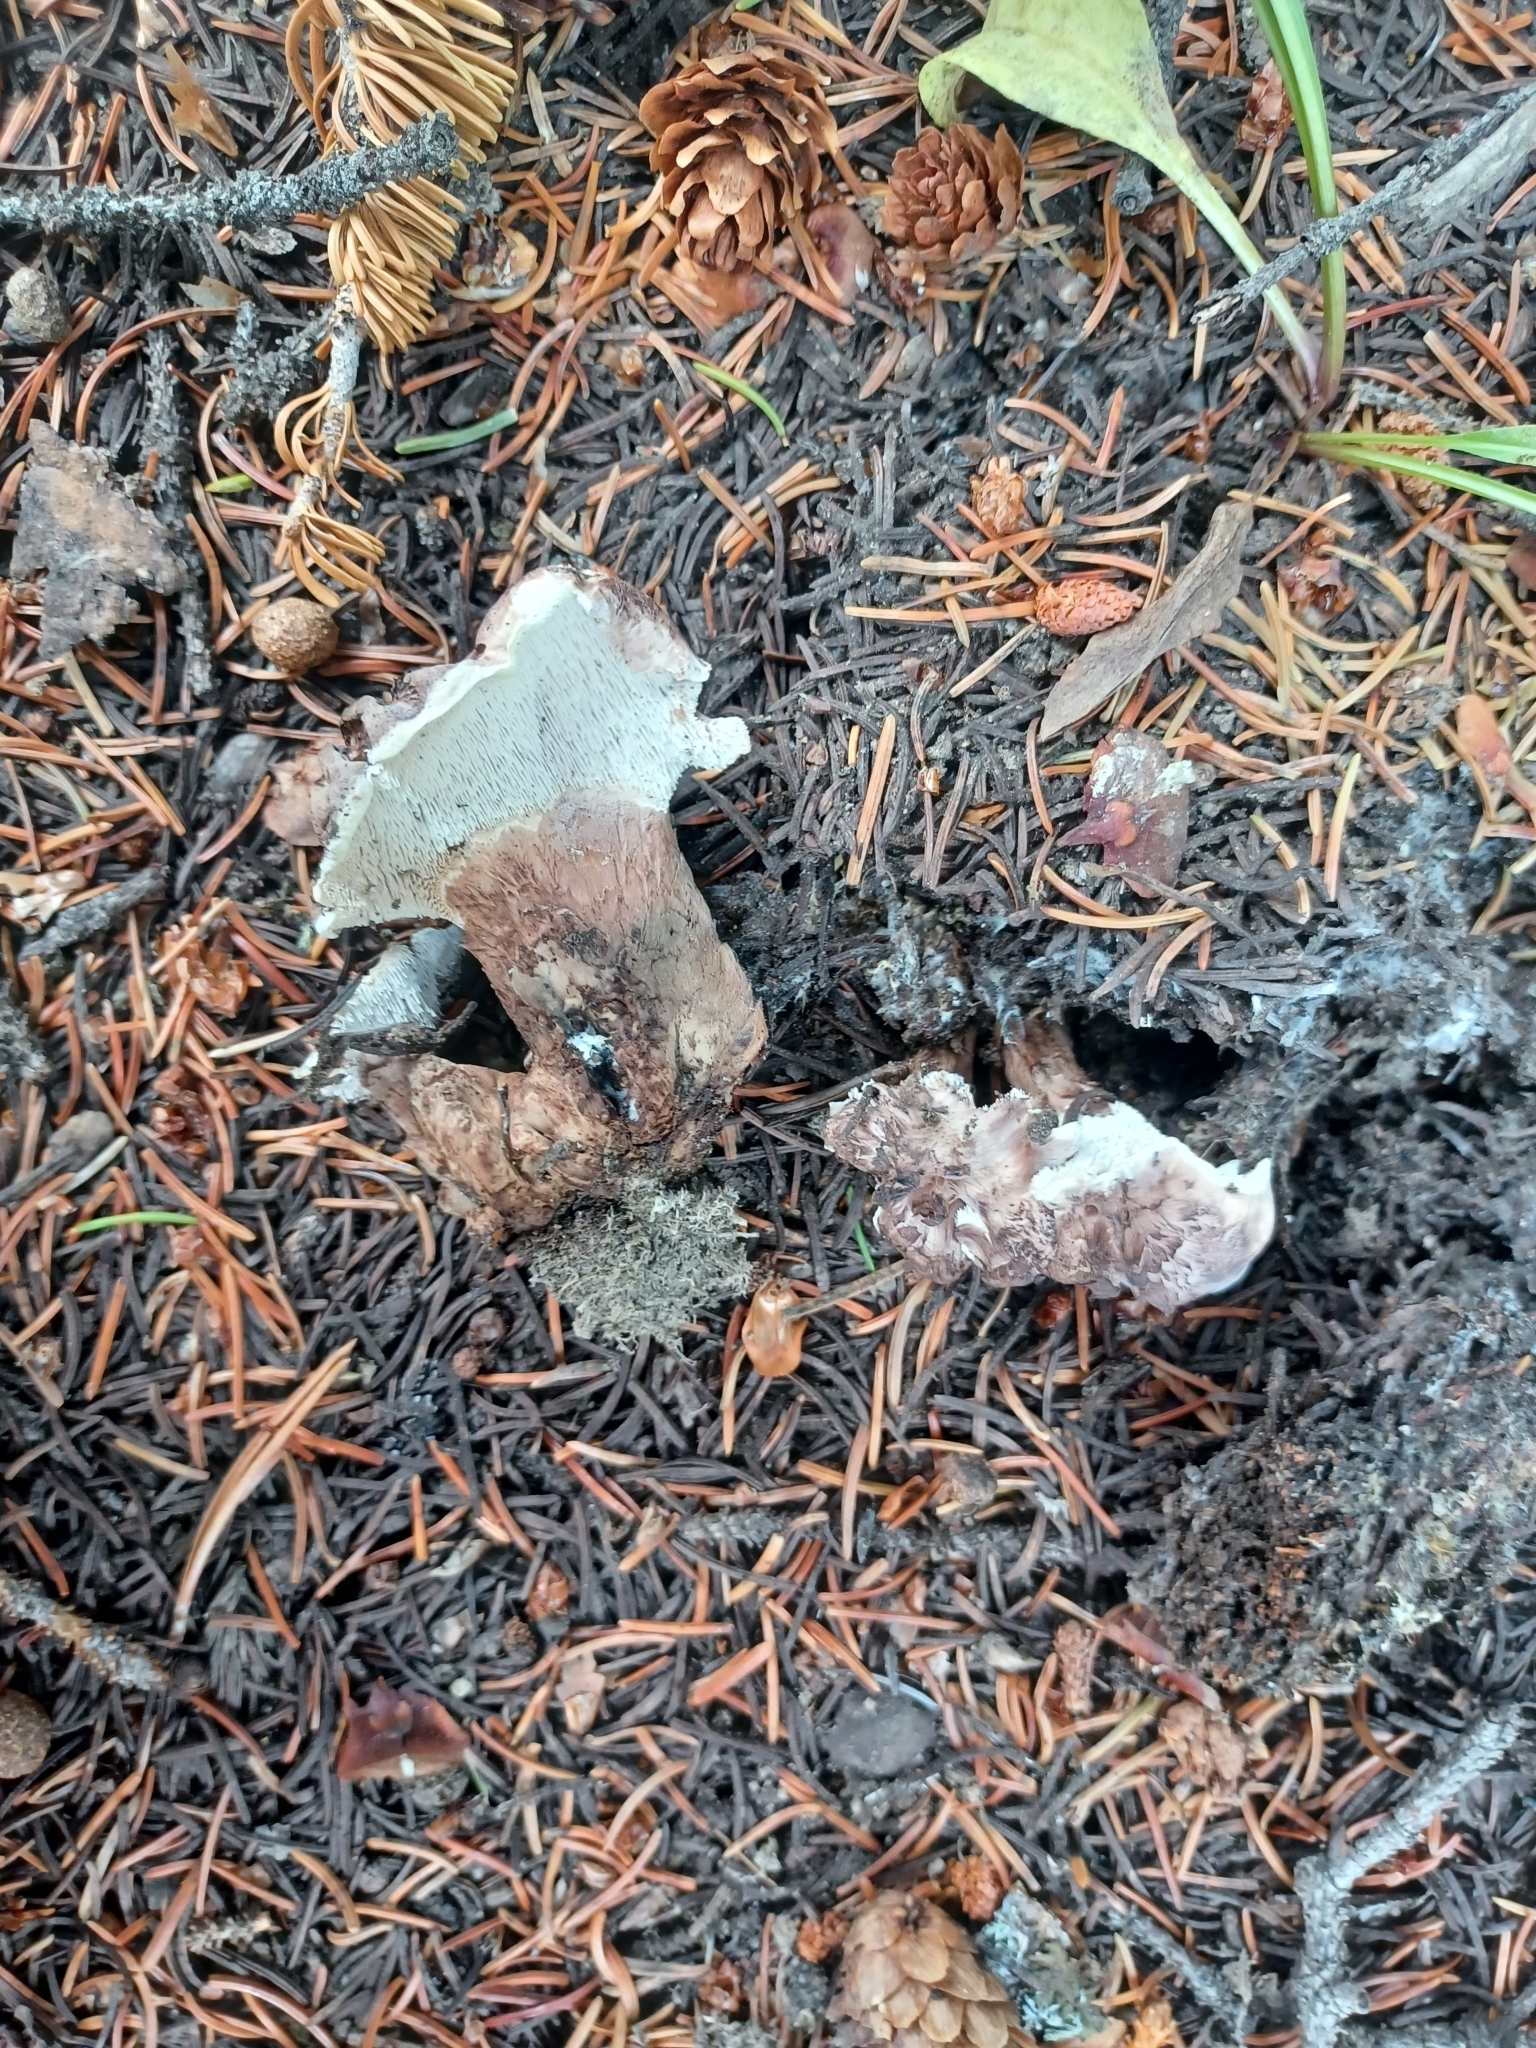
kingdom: Fungi
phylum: Basidiomycota
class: Agaricomycetes
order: Thelephorales
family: Bankeraceae
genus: Sarcodon
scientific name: Sarcodon imbricatus
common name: Shingled hedgehog
